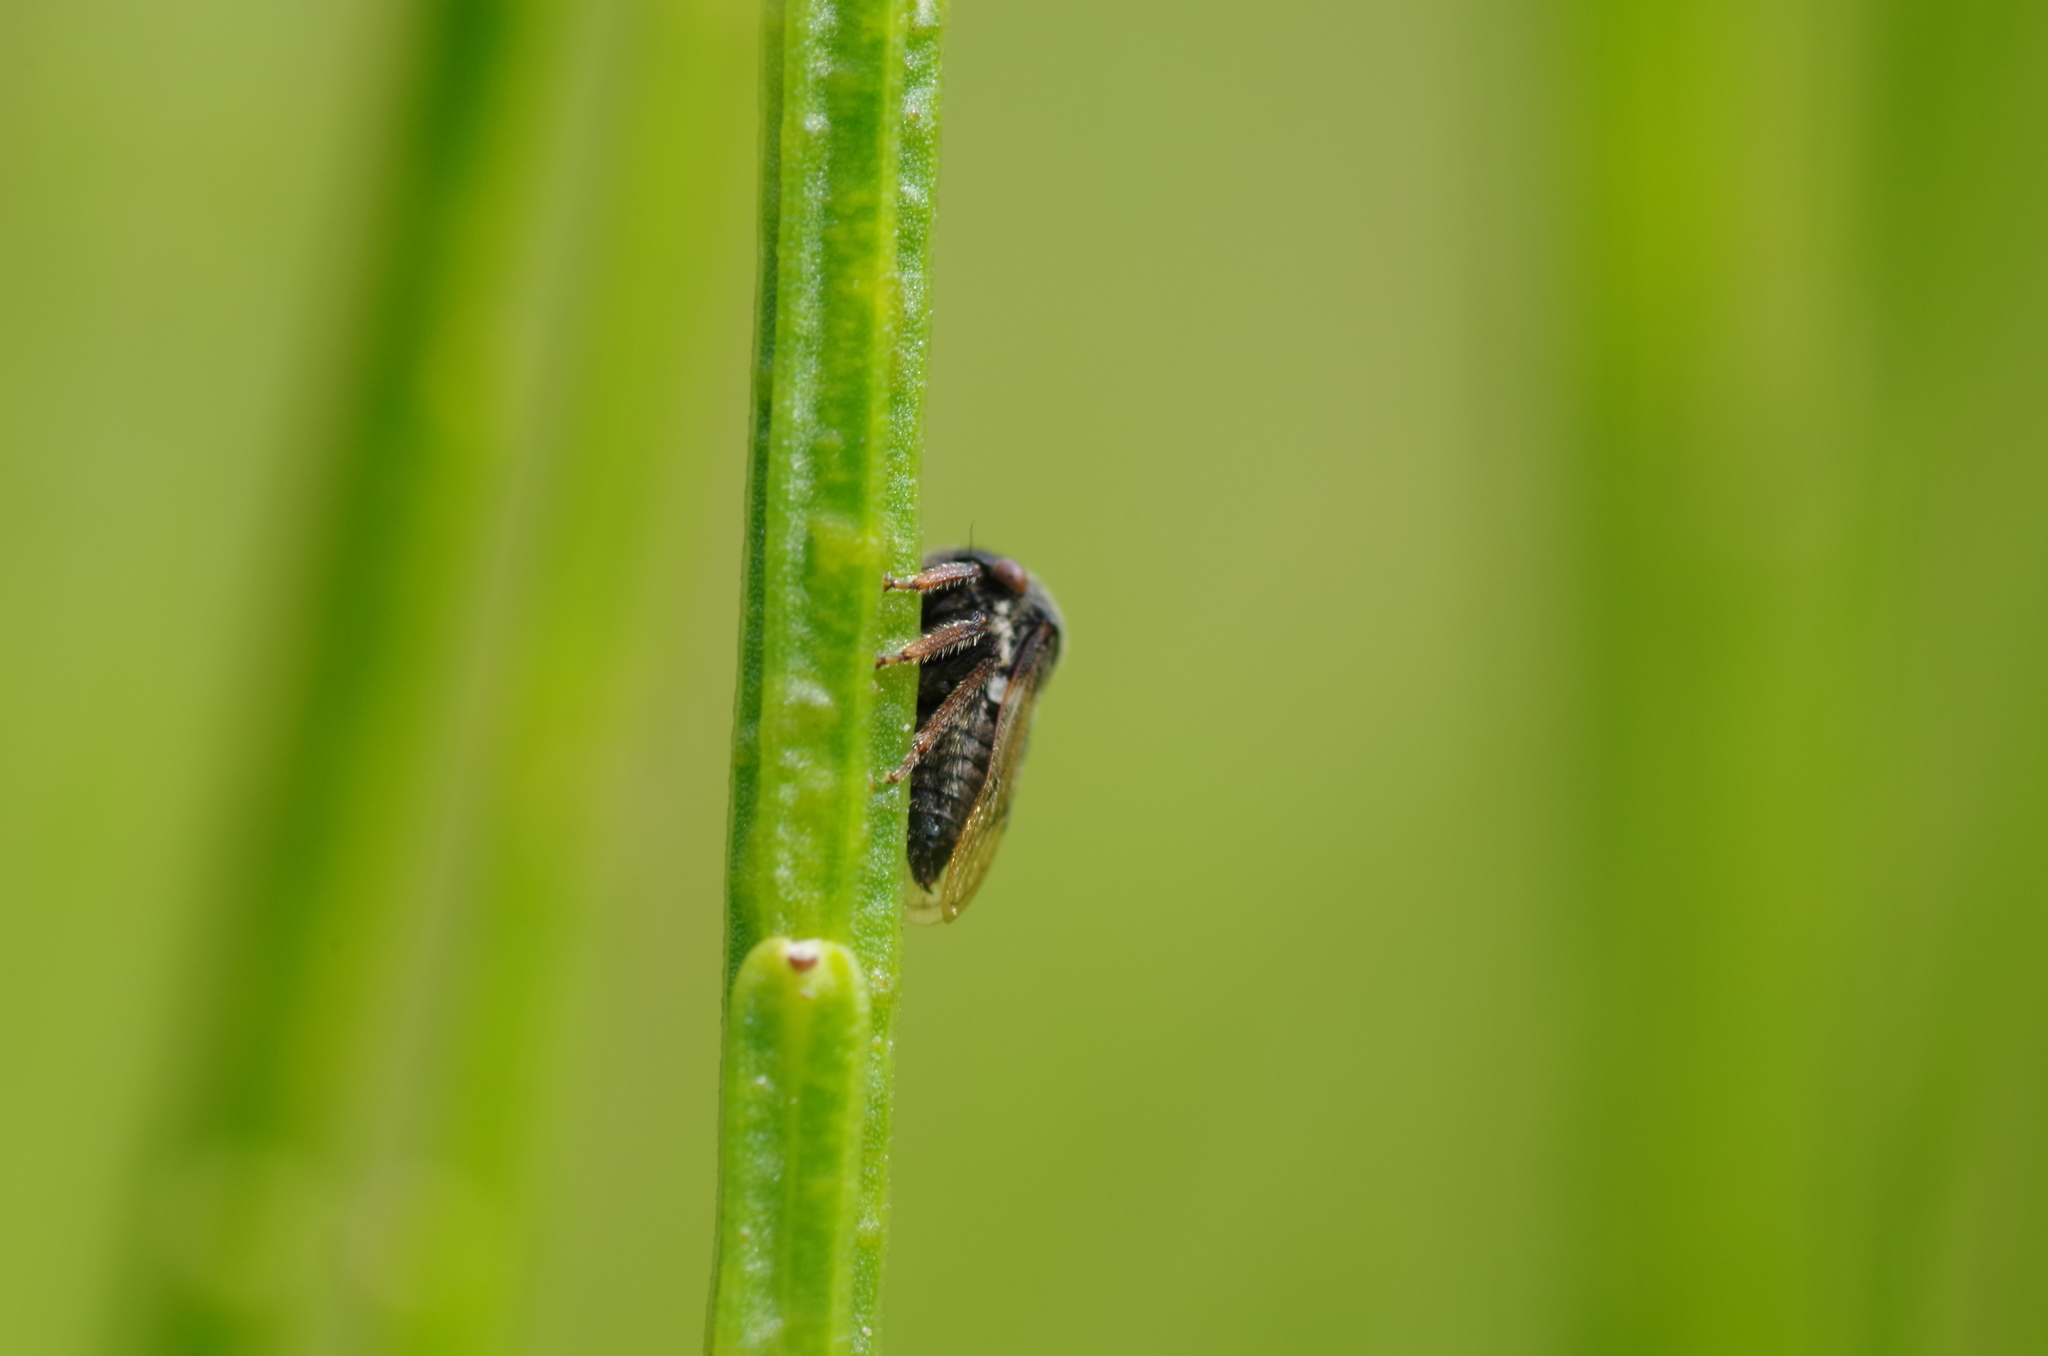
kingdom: Animalia
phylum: Arthropoda
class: Insecta
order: Hemiptera
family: Membracidae
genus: Gargara
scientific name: Gargara genistae
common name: Treehopper
